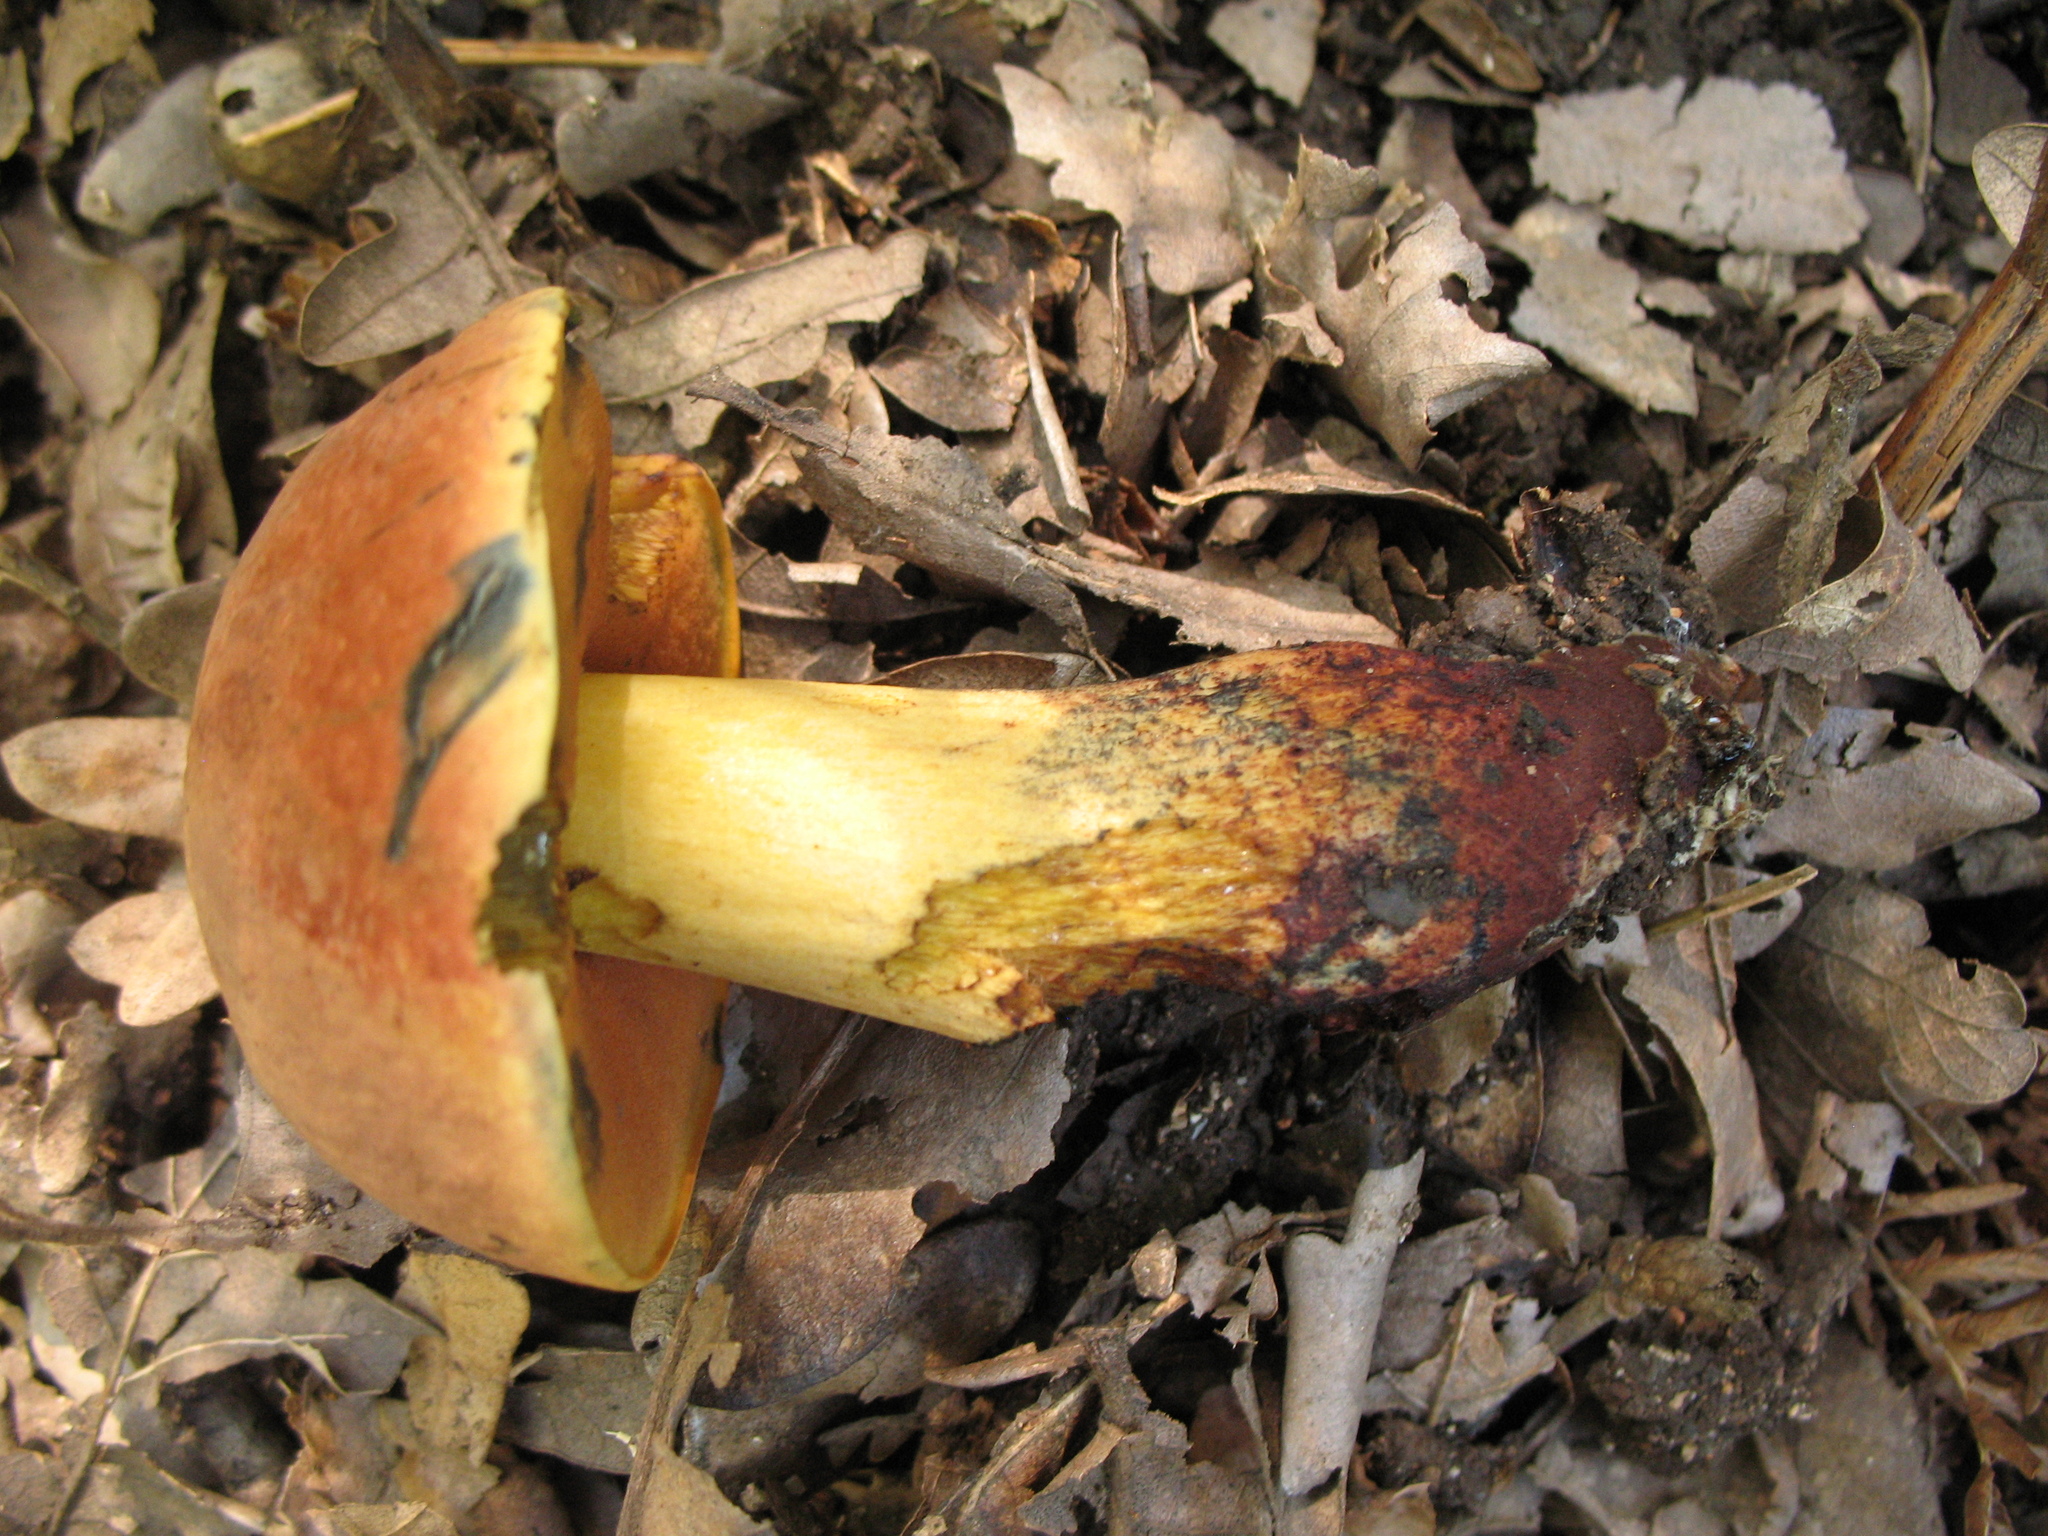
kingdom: Fungi
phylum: Basidiomycota
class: Agaricomycetes
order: Boletales
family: Boletaceae
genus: Suillellus
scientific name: Suillellus queletii
